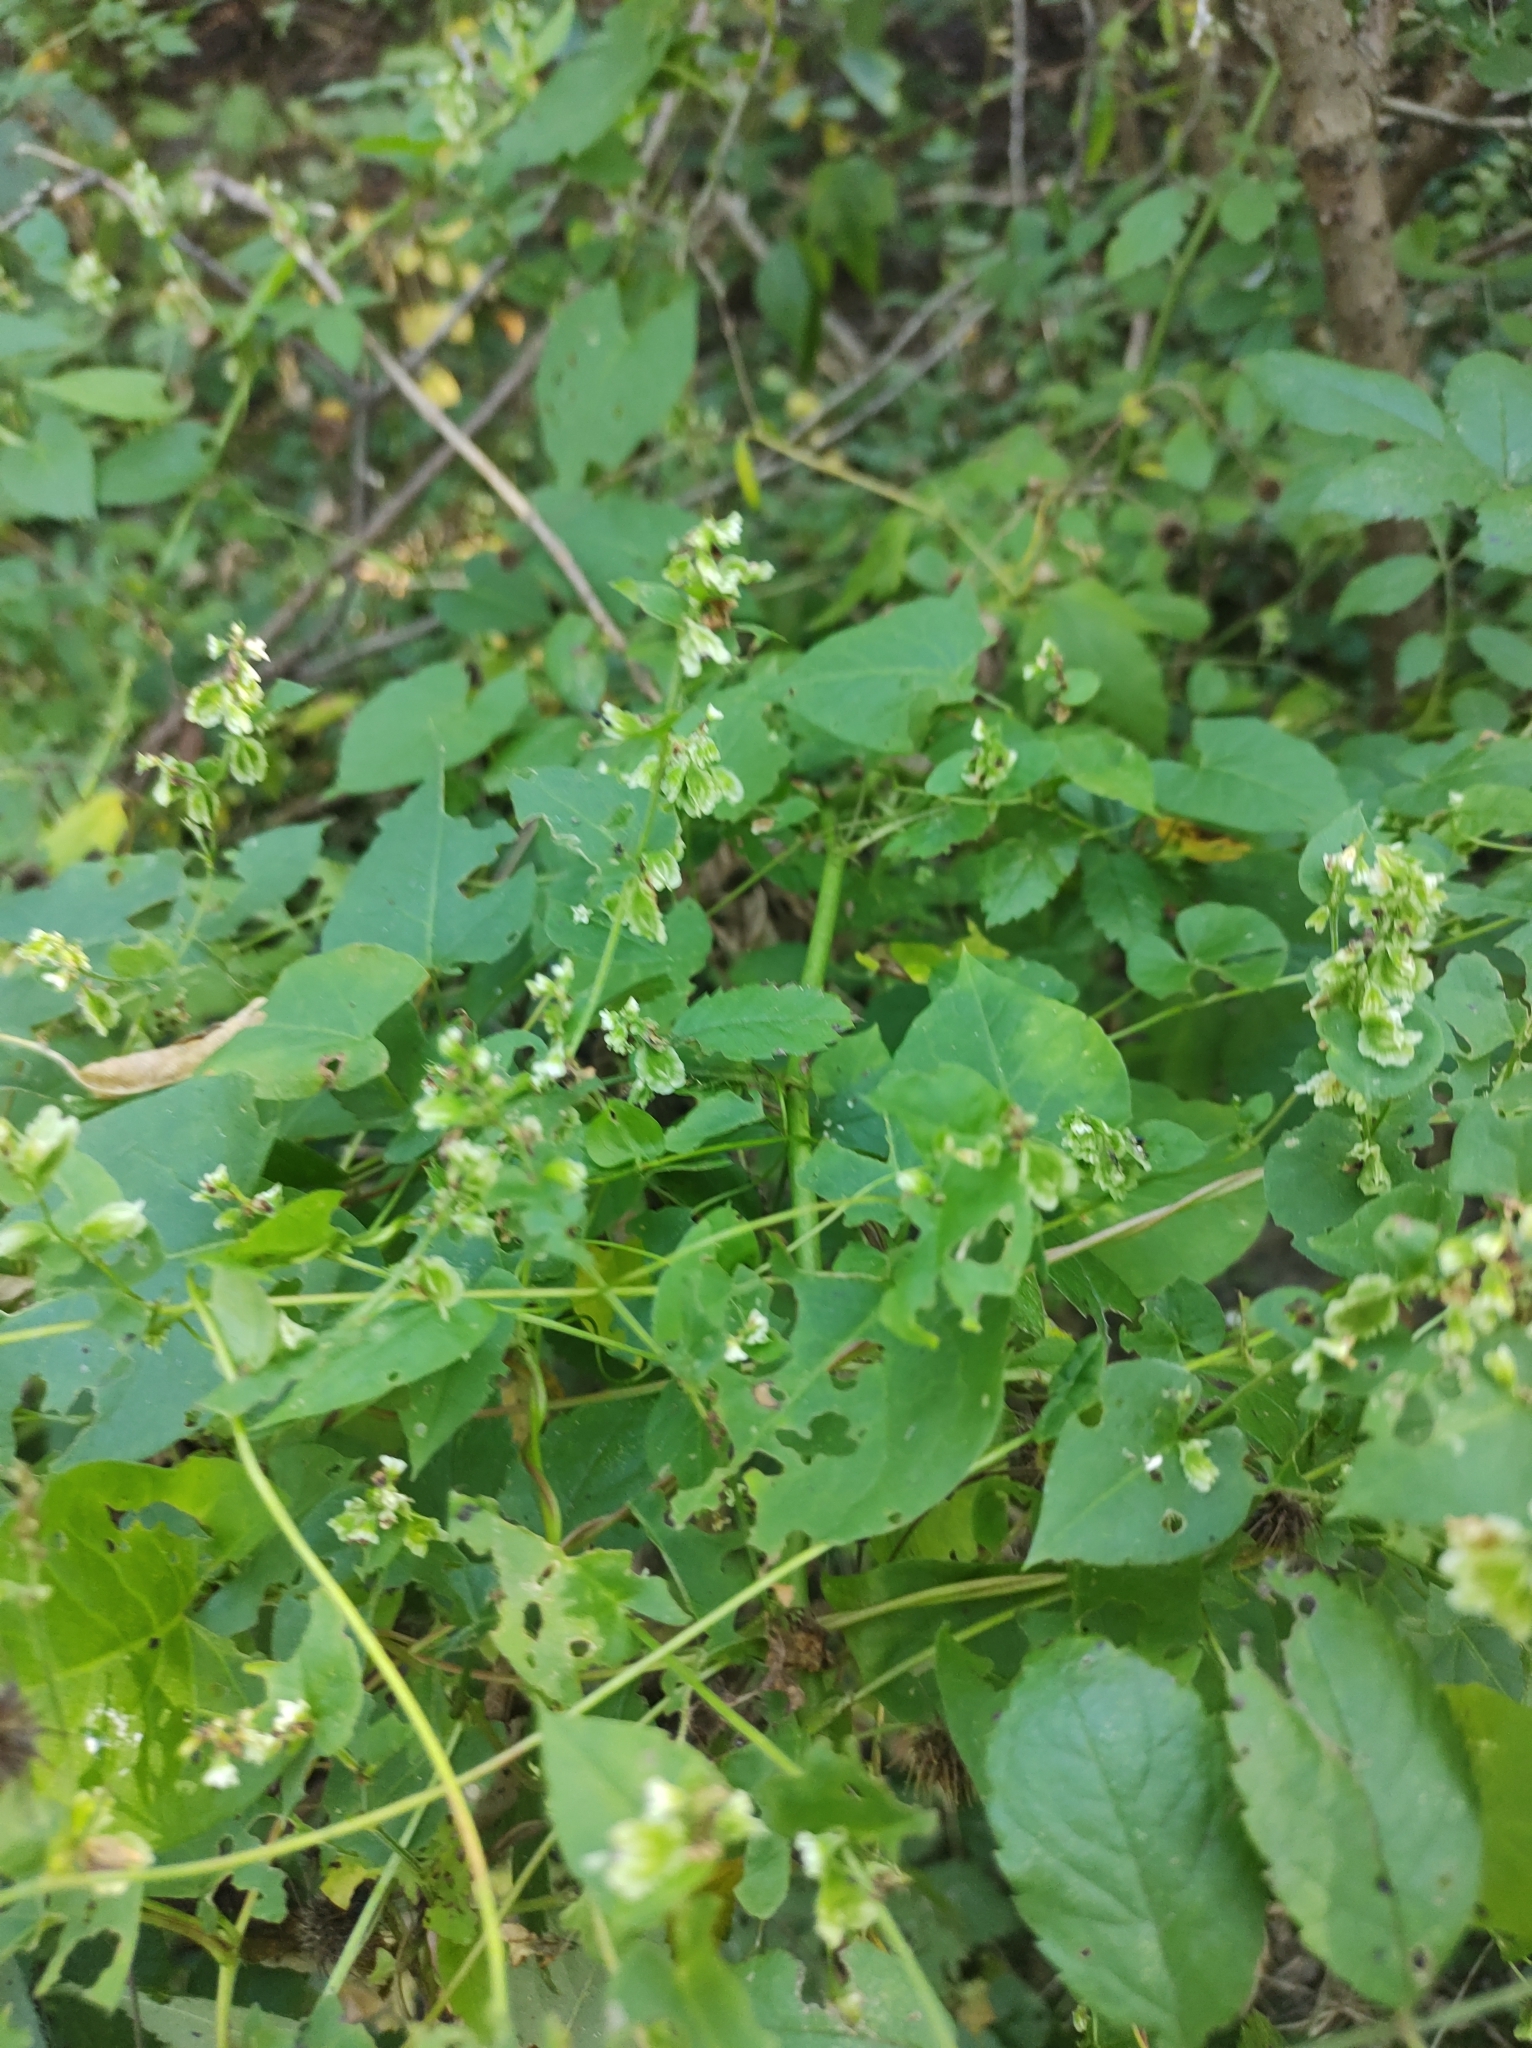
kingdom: Plantae
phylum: Tracheophyta
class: Magnoliopsida
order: Caryophyllales
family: Polygonaceae
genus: Fallopia
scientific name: Fallopia scandens
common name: Climbing false buckwheat
